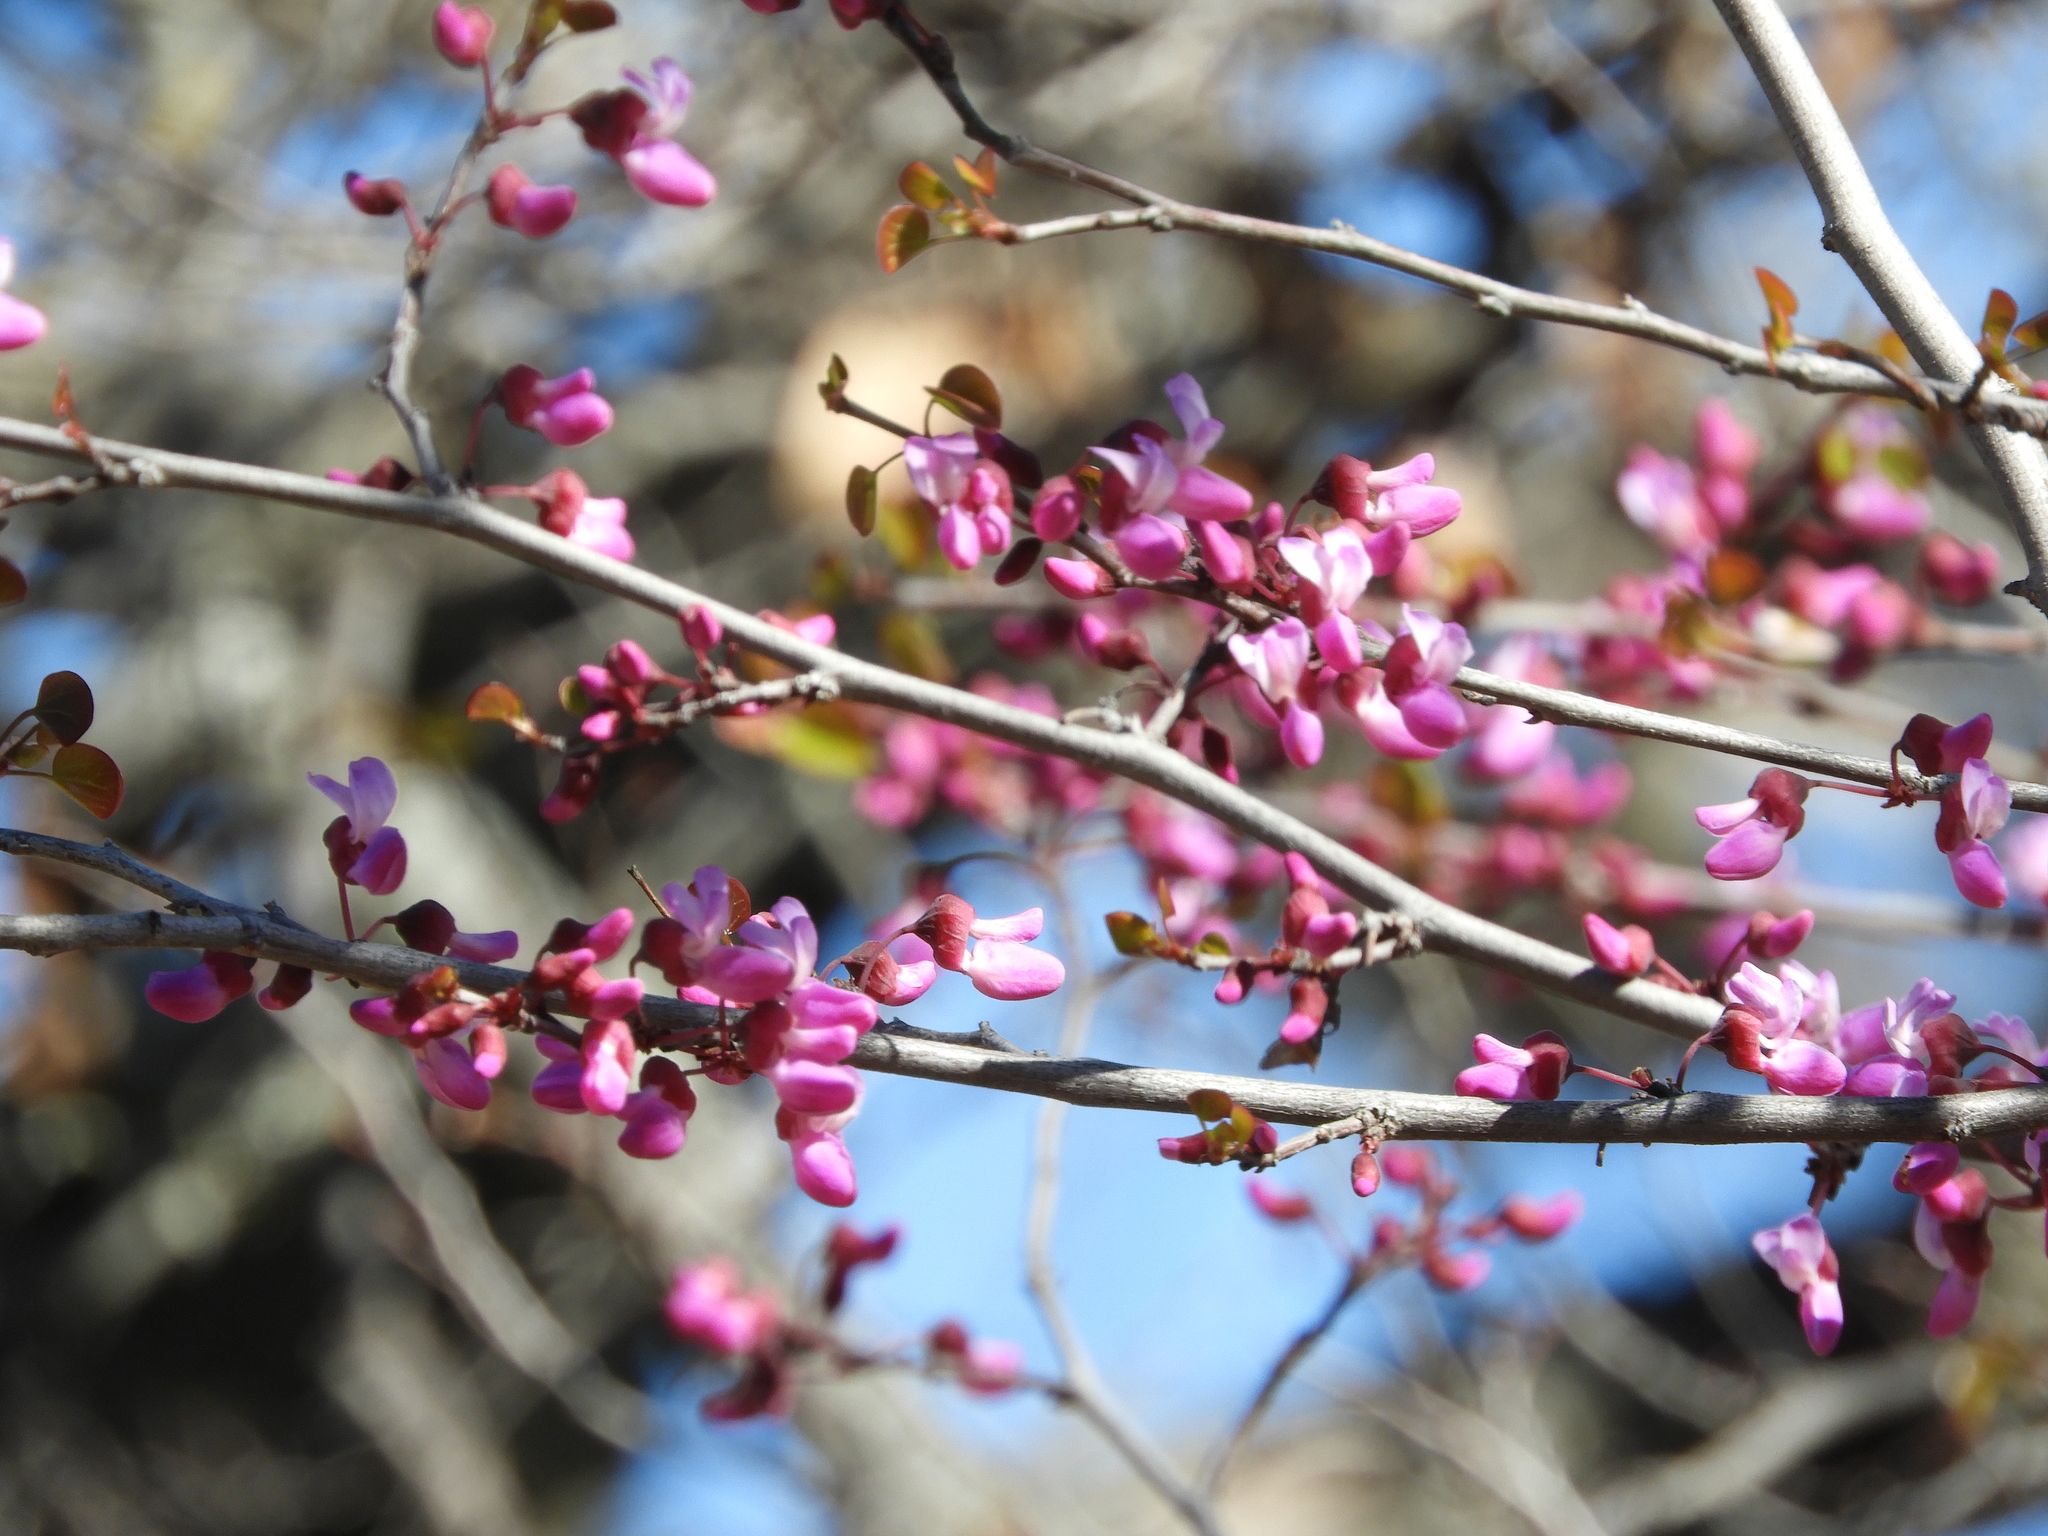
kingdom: Plantae
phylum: Tracheophyta
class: Magnoliopsida
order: Fabales
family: Fabaceae
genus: Cercis
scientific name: Cercis occidentalis
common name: California redbud
